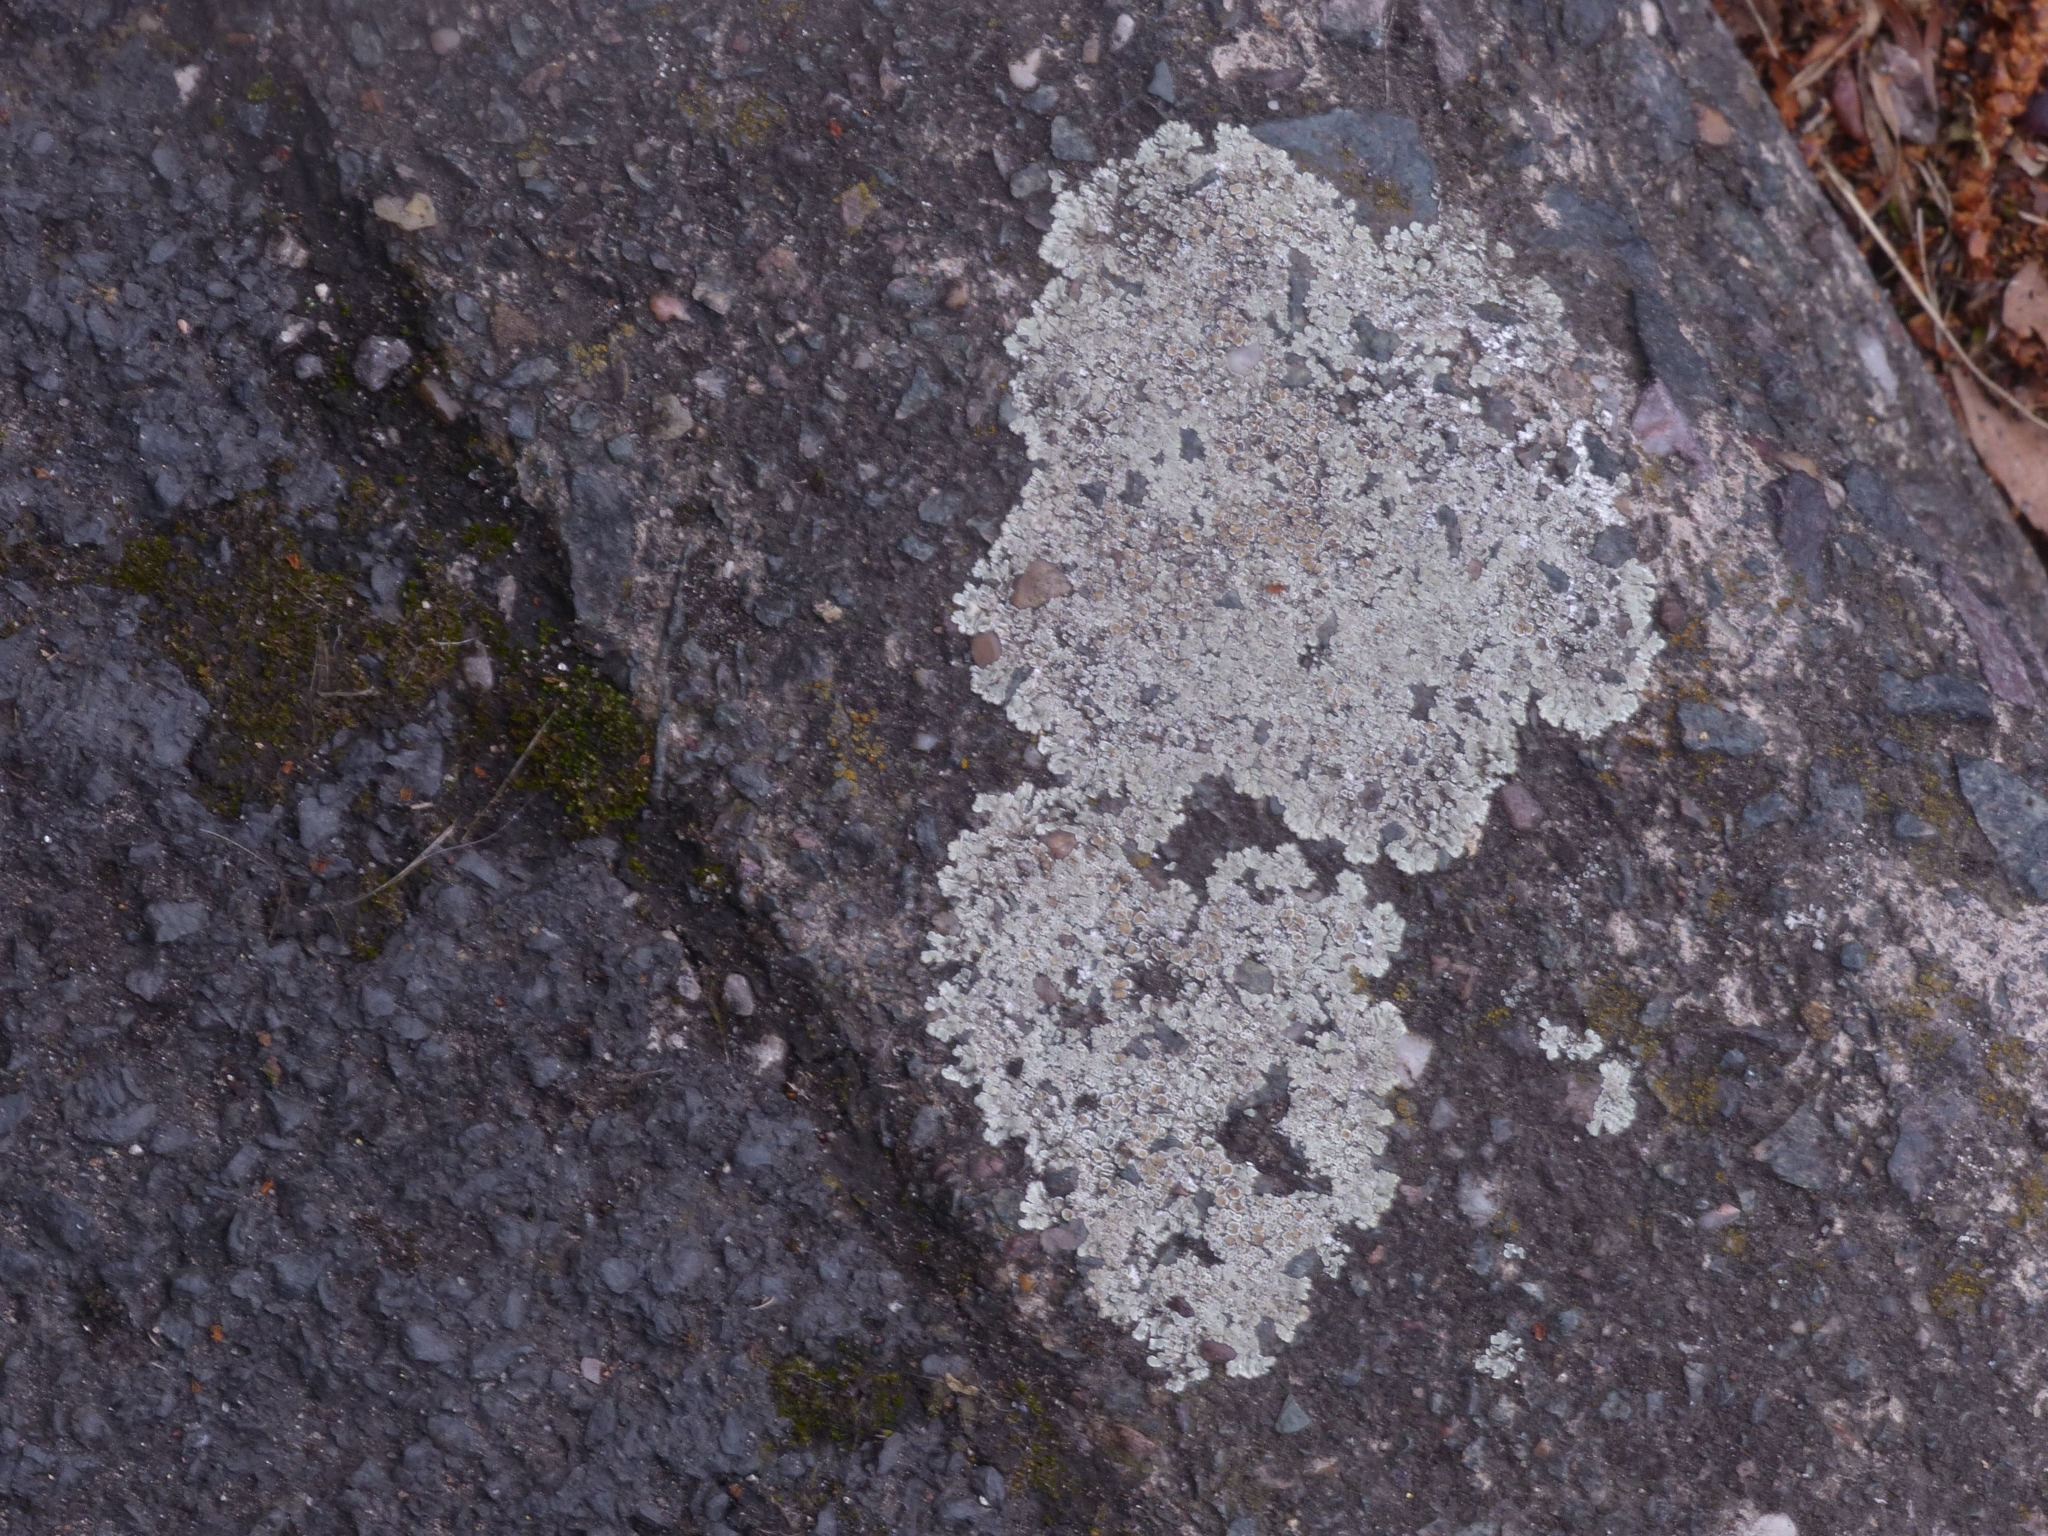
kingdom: Fungi
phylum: Ascomycota
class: Lecanoromycetes
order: Lecanorales
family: Lecanoraceae
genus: Protoparmeliopsis
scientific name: Protoparmeliopsis muralis
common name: Stonewall rim lichen
